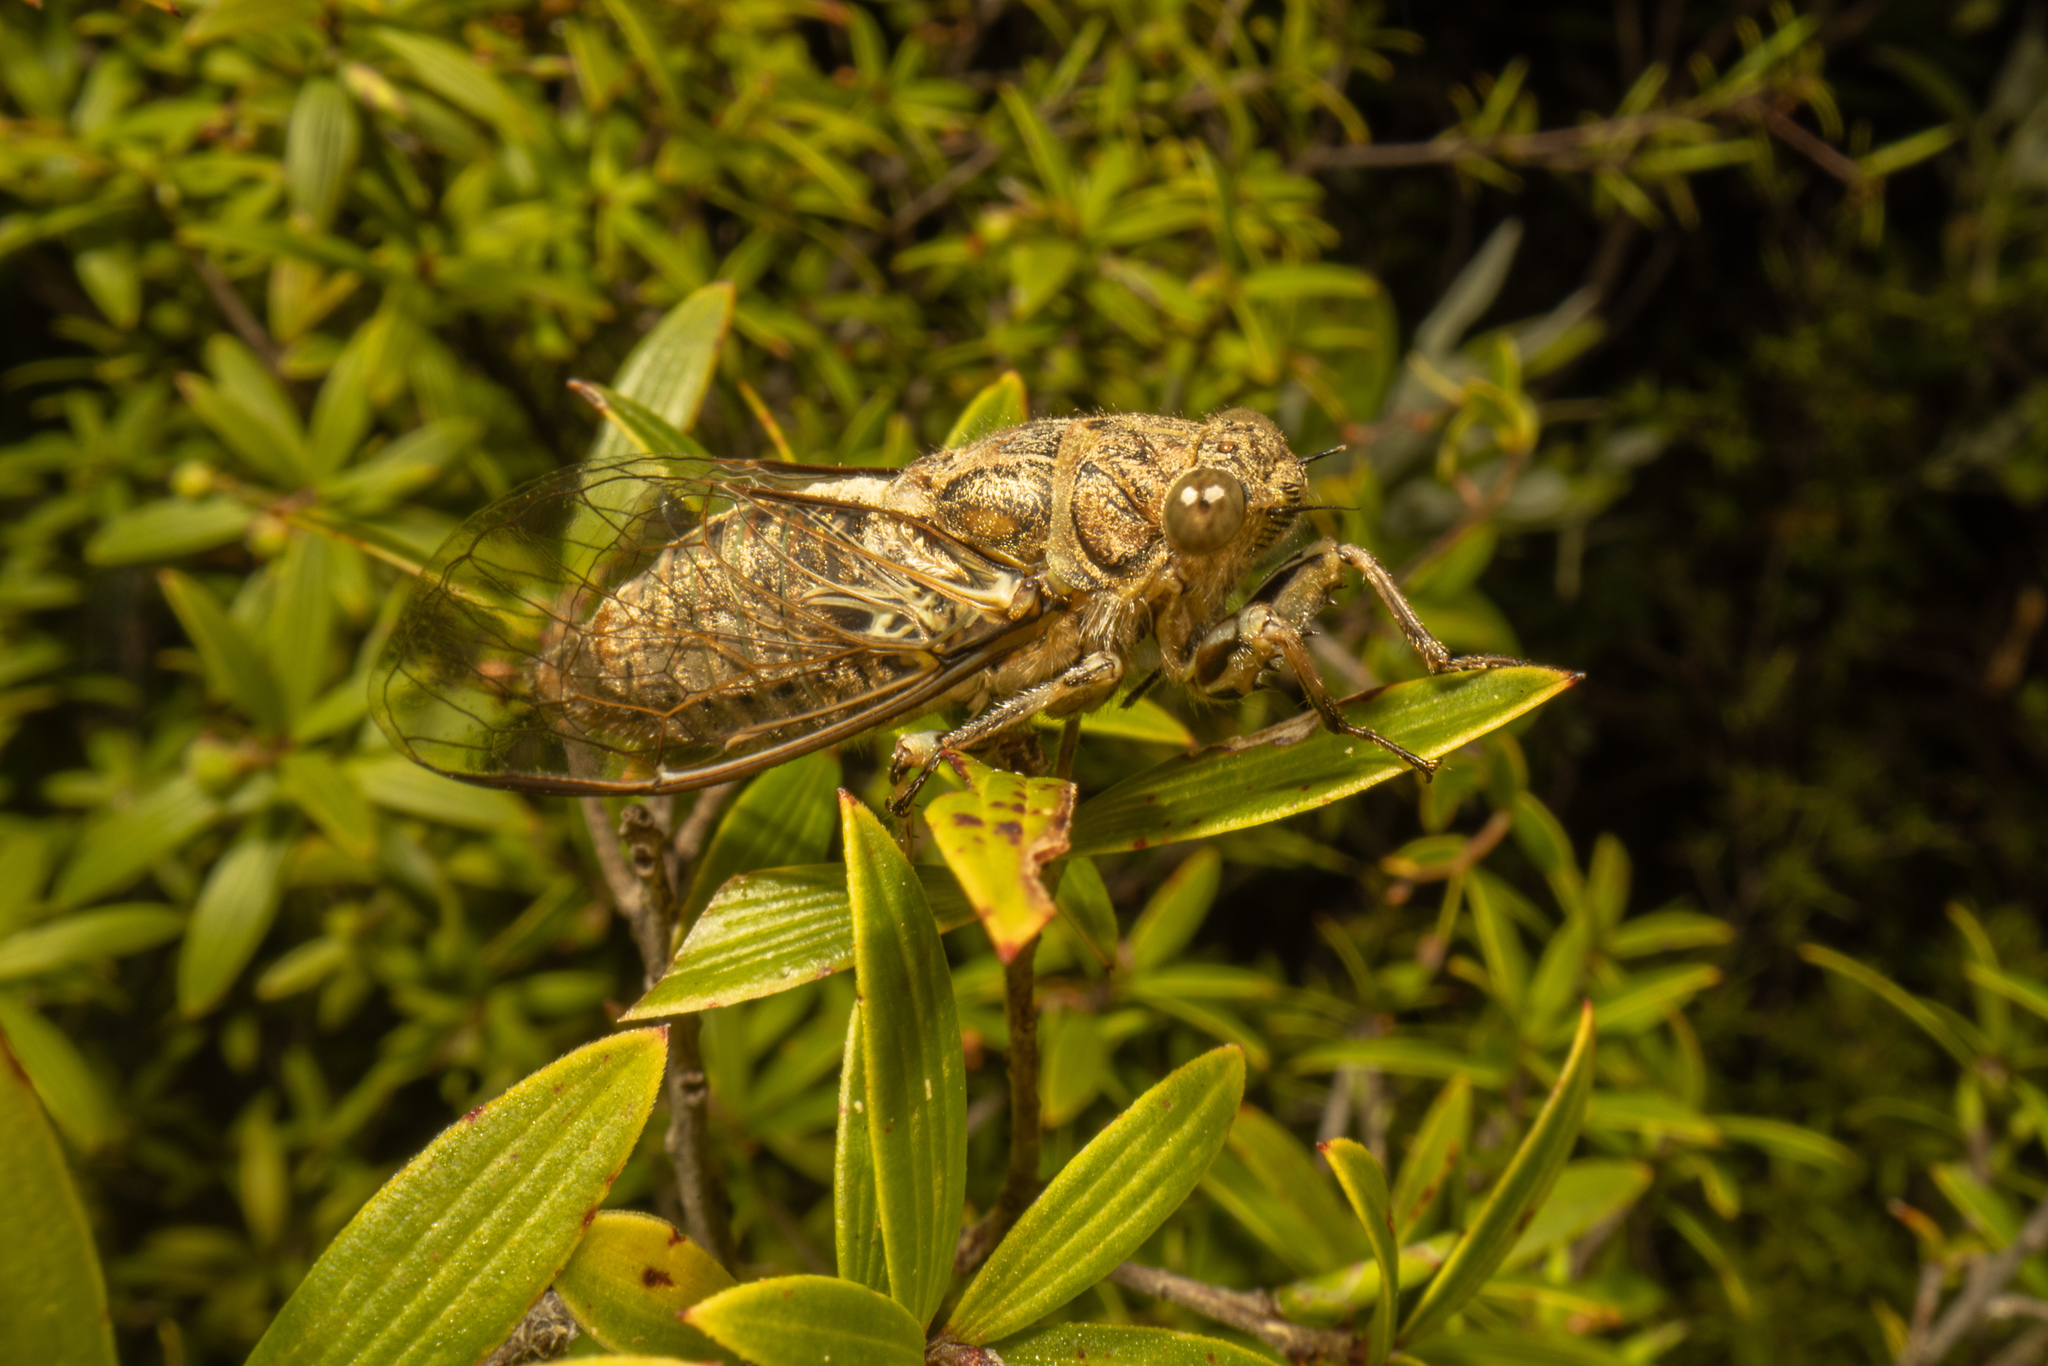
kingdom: Animalia
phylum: Arthropoda
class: Insecta
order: Hemiptera
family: Cicadidae
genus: Notopsalta
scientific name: Notopsalta sericea
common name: Clay bank cicada
